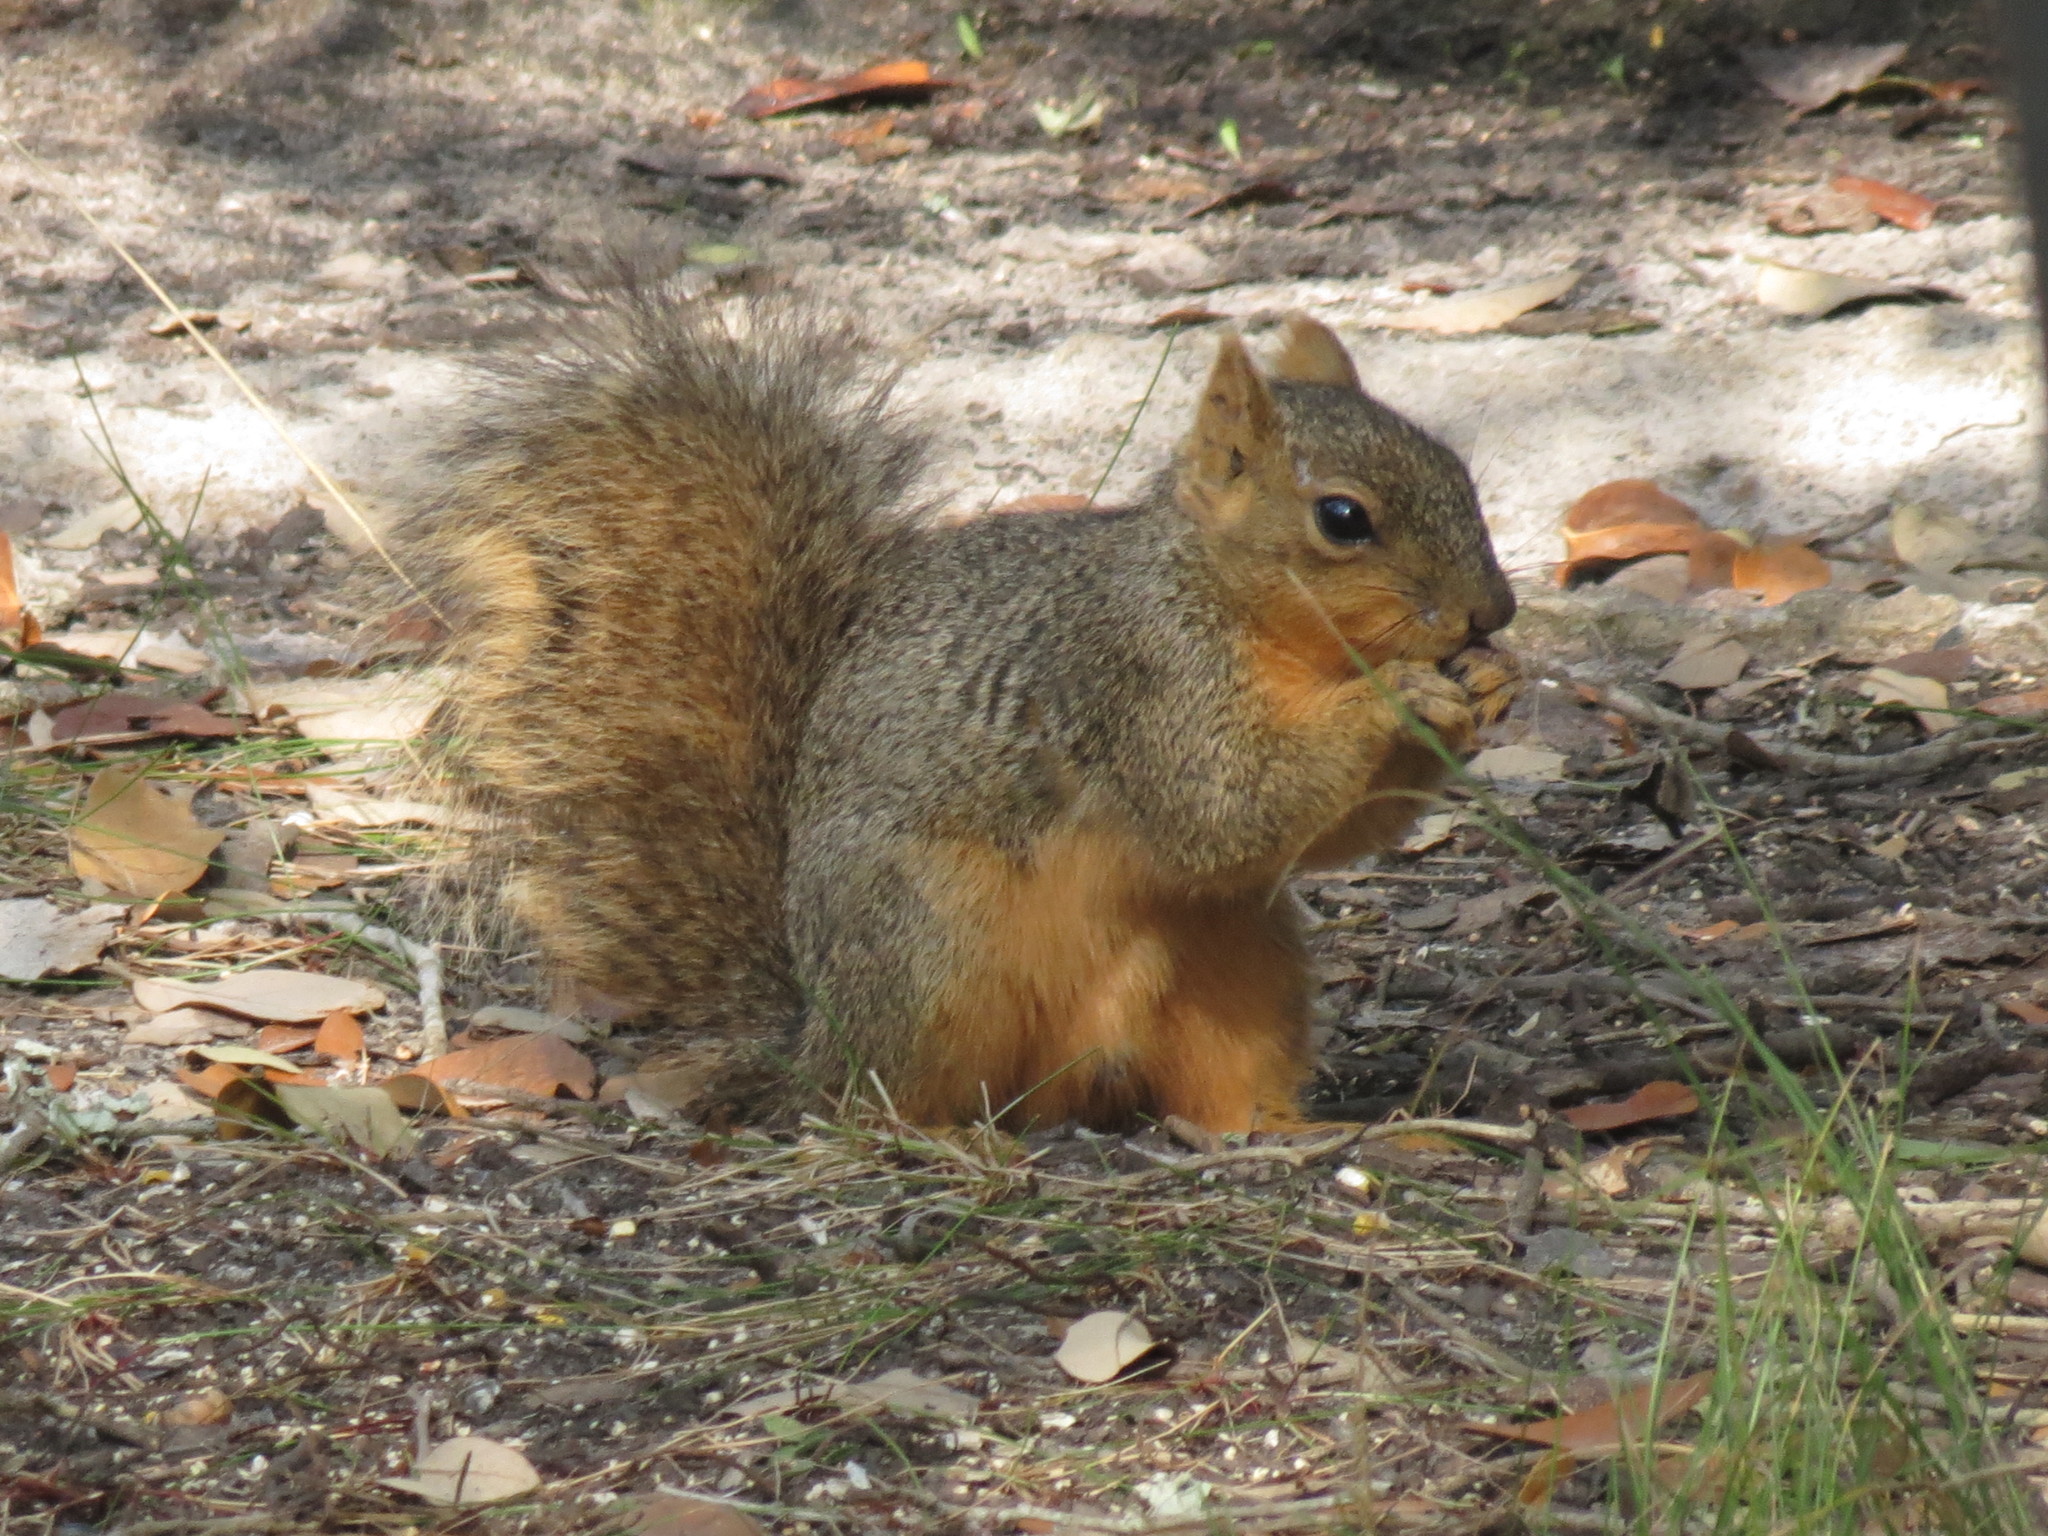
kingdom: Animalia
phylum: Chordata
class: Mammalia
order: Rodentia
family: Sciuridae
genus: Sciurus
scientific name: Sciurus niger
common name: Fox squirrel
